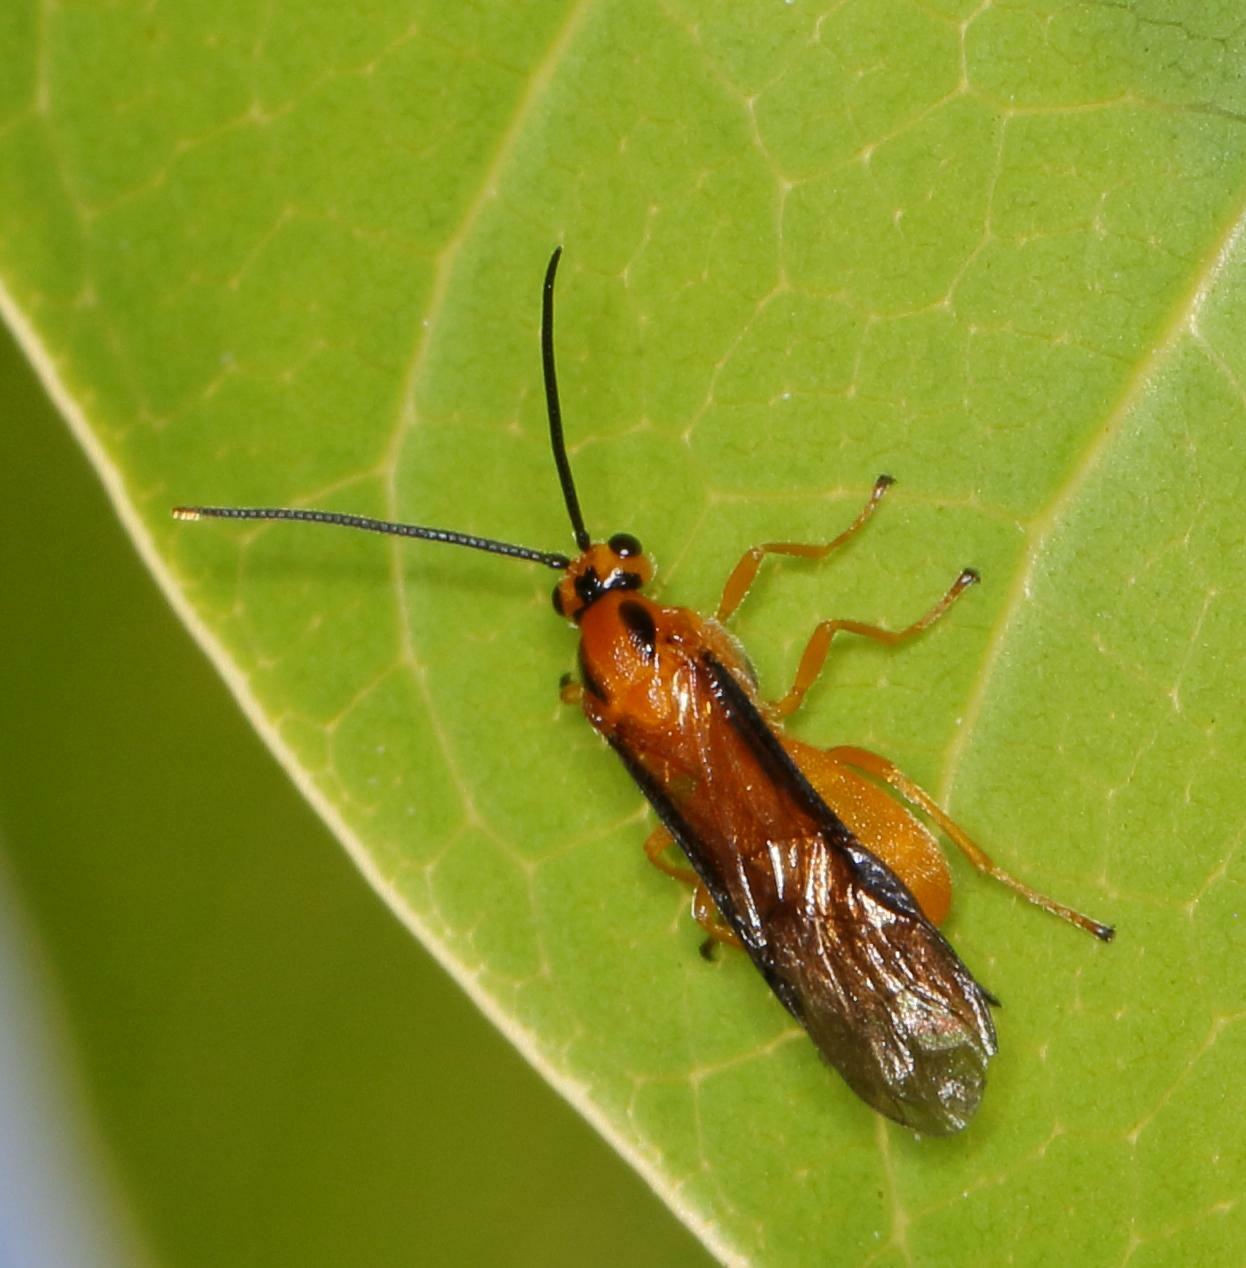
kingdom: Animalia
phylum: Arthropoda
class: Insecta
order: Hymenoptera
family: Braconidae
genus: Physaraia
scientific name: Physaraia bilobata
